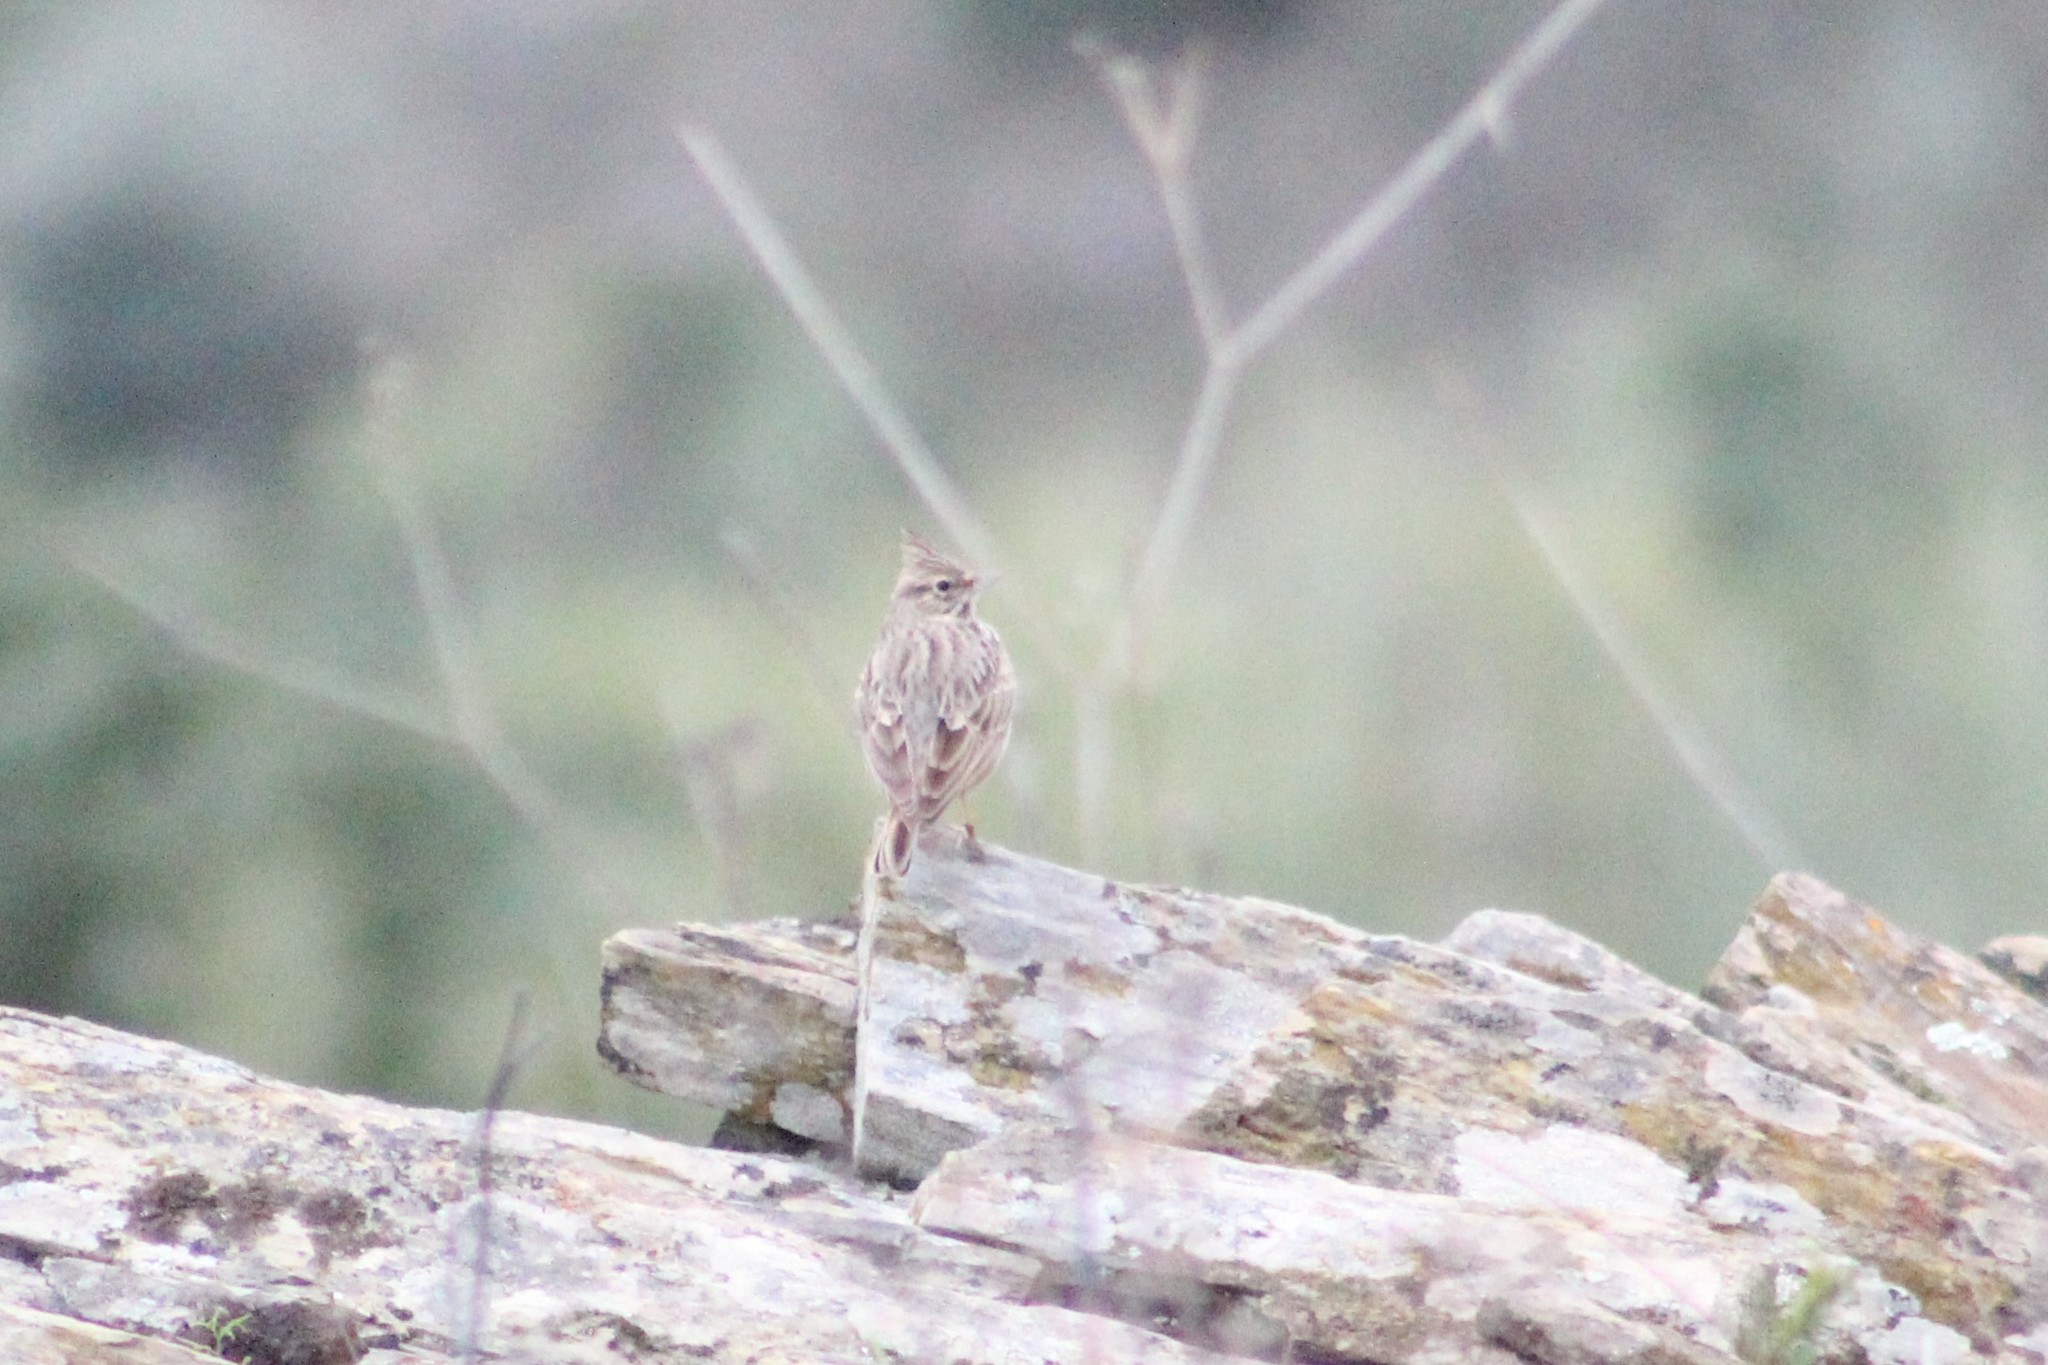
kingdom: Animalia
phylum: Chordata
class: Aves
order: Passeriformes
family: Alaudidae
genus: Galerida
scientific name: Galerida theklae
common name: Thekla lark
